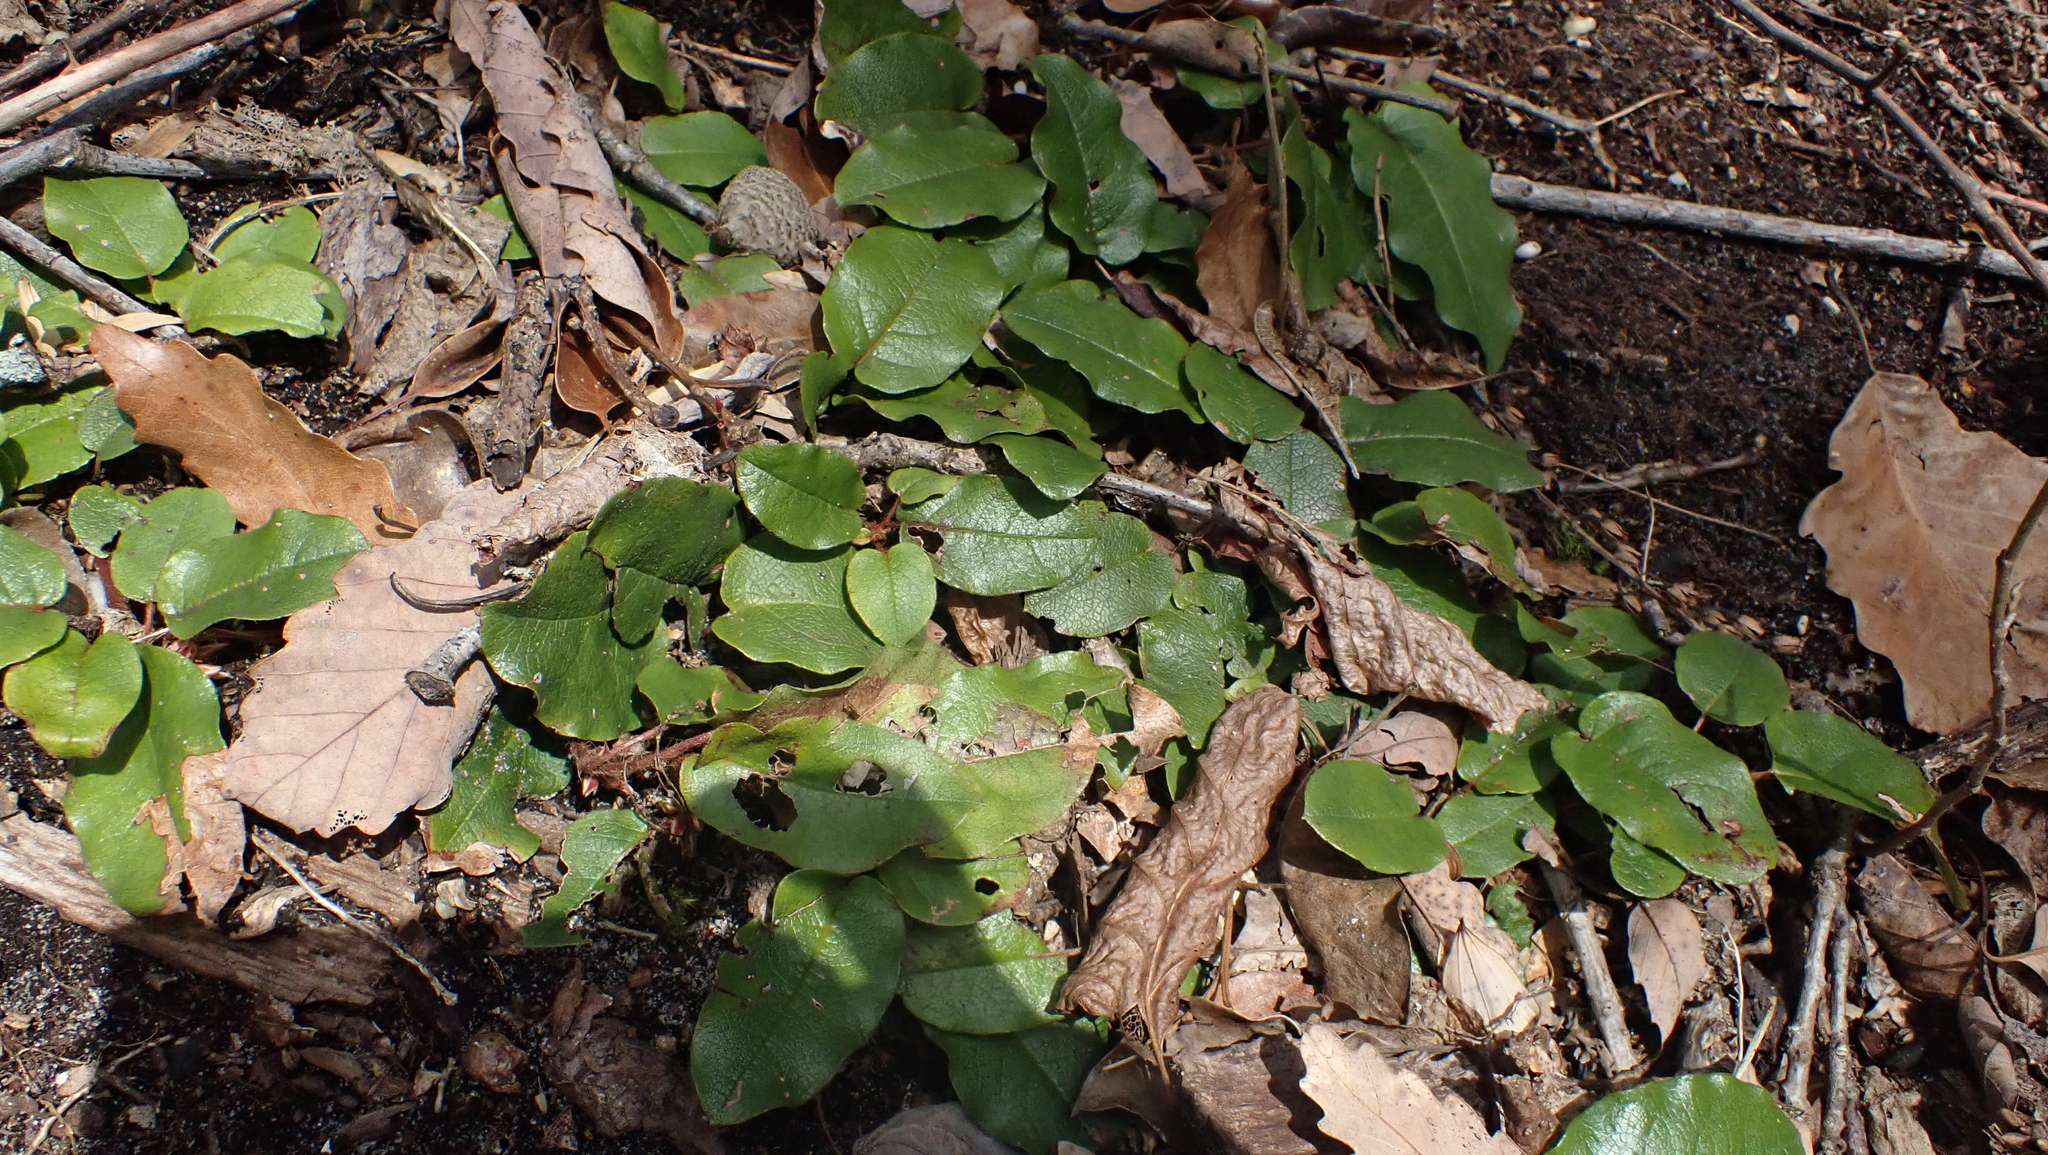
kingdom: Plantae
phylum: Tracheophyta
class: Magnoliopsida
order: Ericales
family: Ericaceae
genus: Epigaea
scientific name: Epigaea repens
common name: Gravelroot
